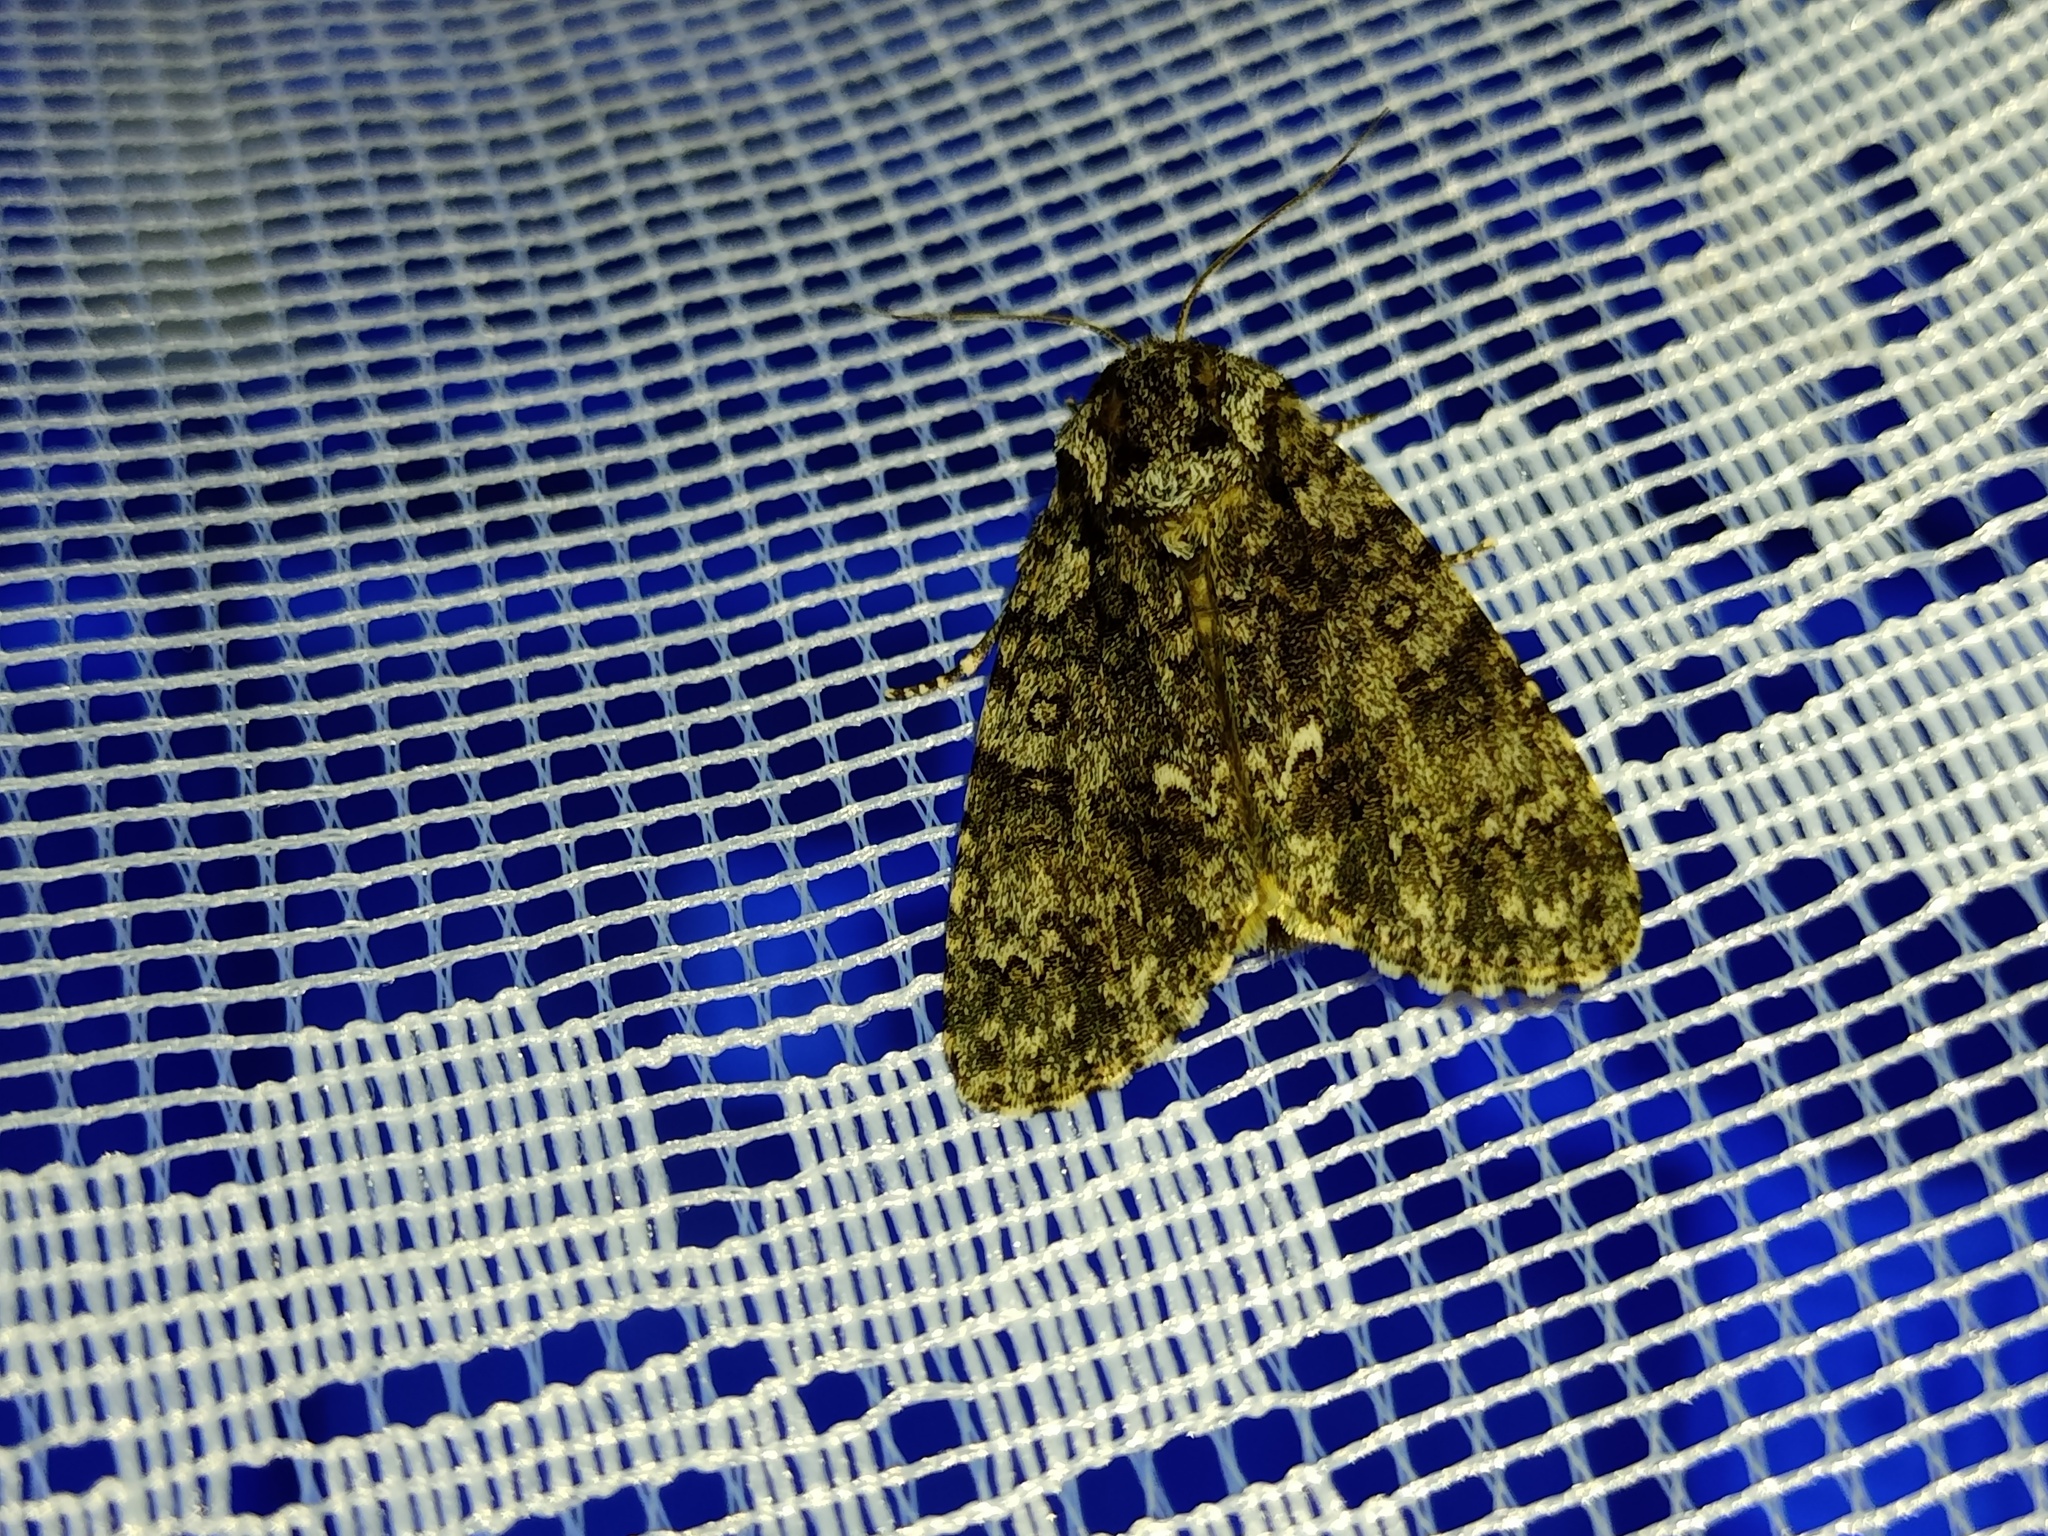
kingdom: Animalia
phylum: Arthropoda
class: Insecta
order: Lepidoptera
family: Noctuidae
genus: Acronicta
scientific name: Acronicta rumicis
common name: Knot grass
